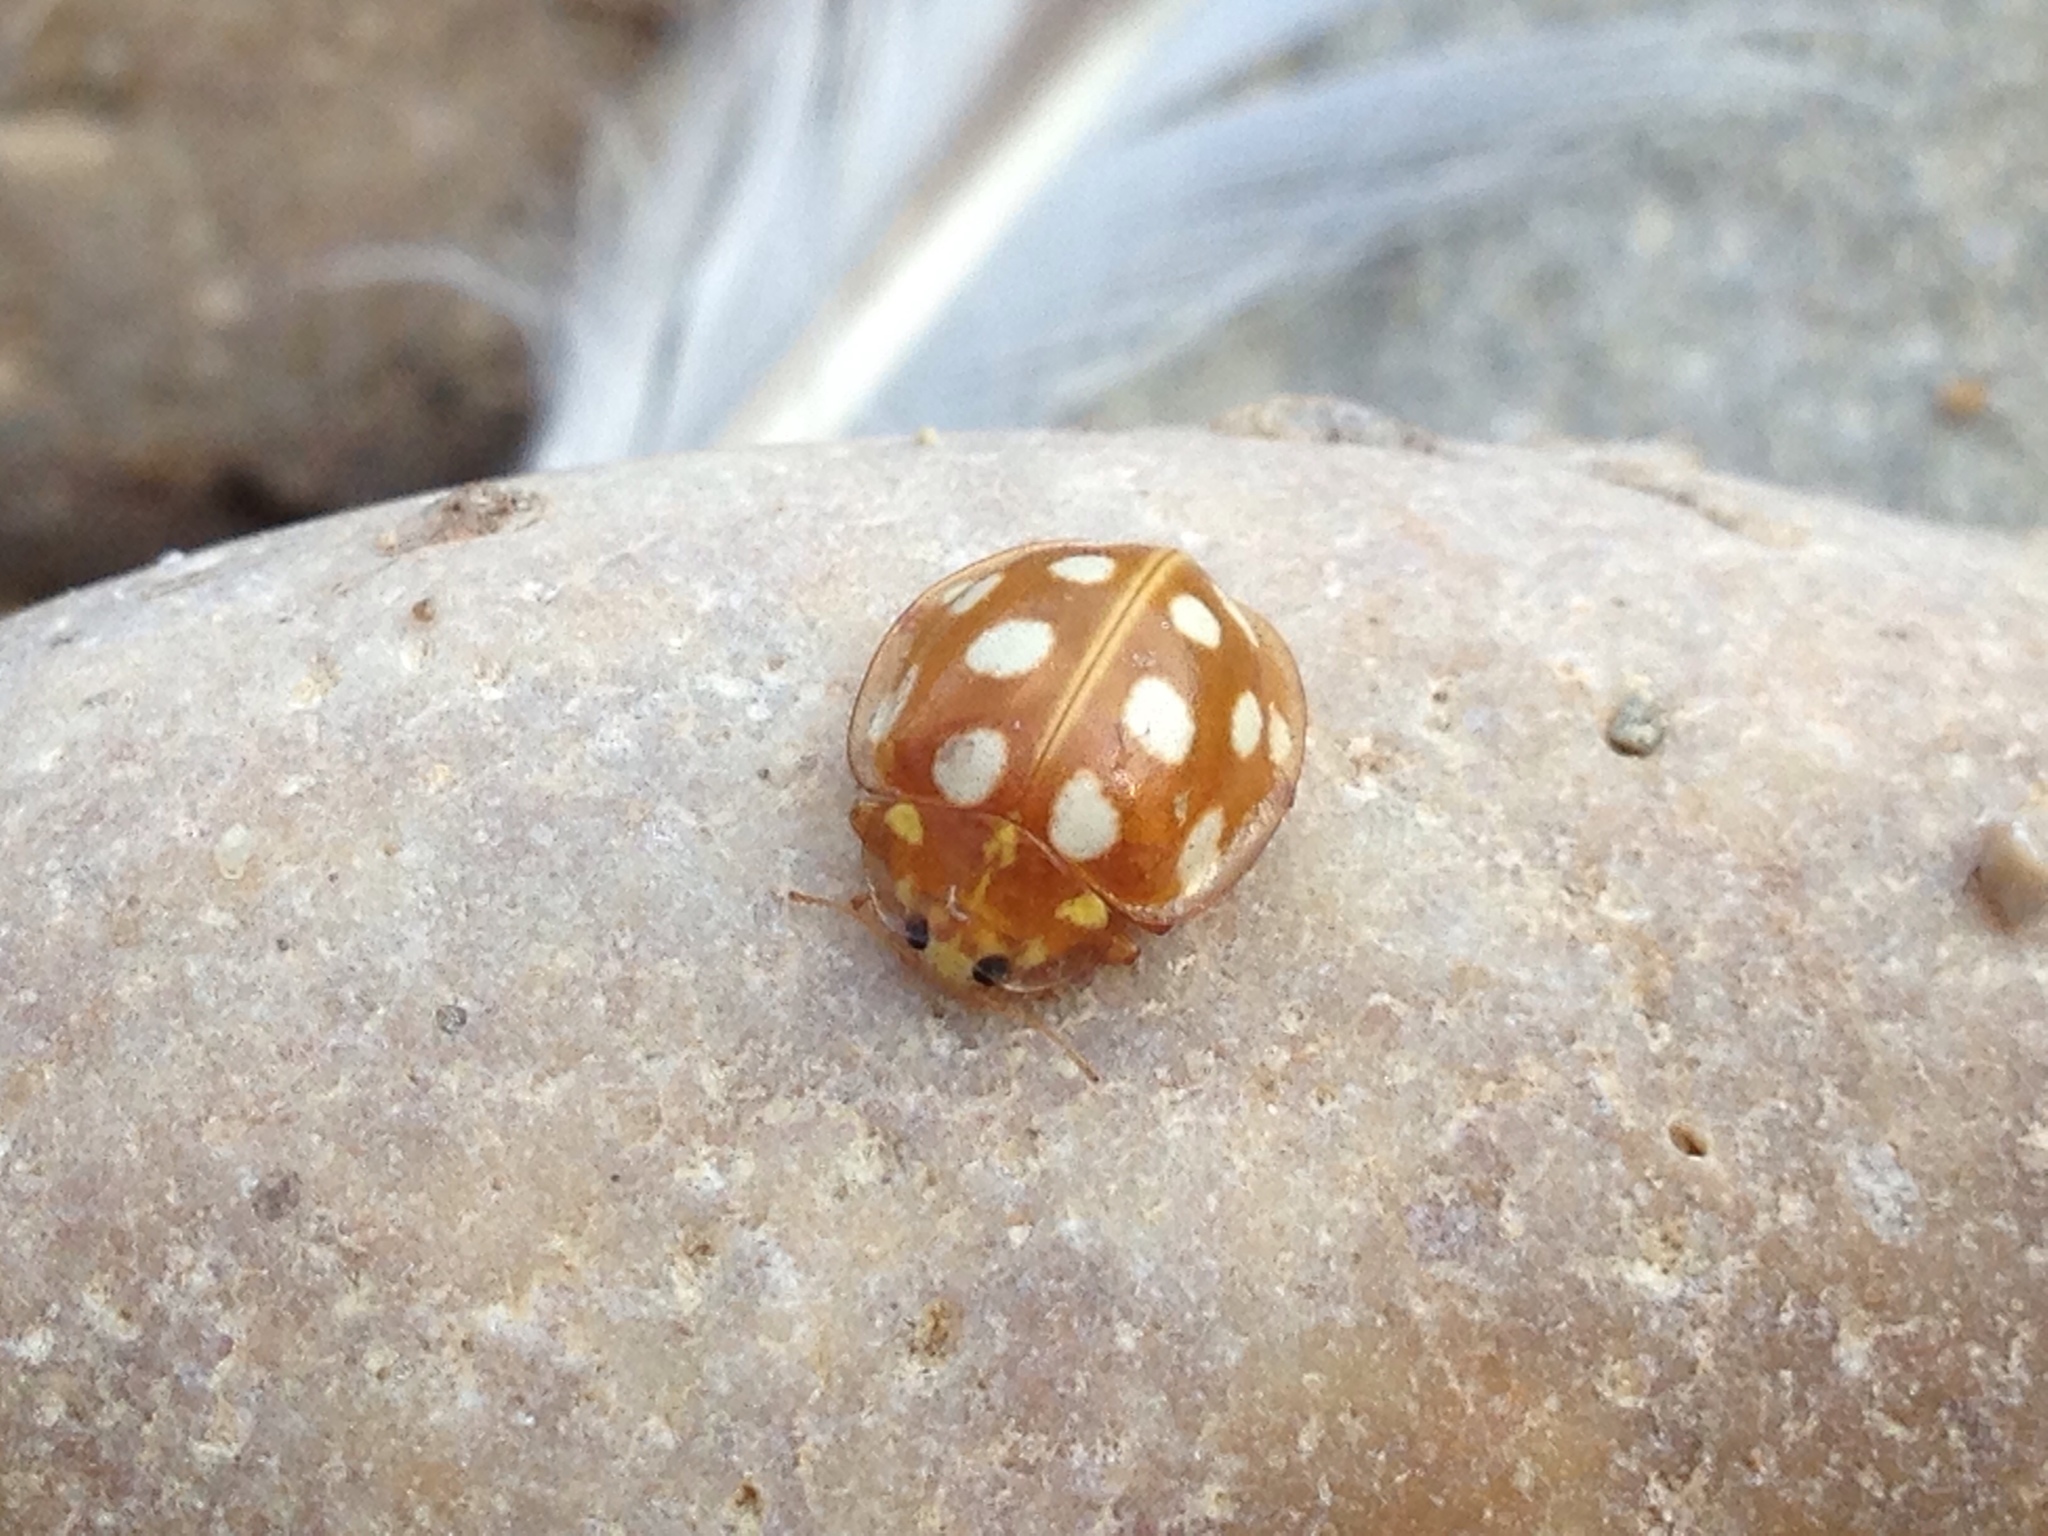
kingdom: Animalia
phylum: Arthropoda
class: Insecta
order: Coleoptera
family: Coccinellidae
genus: Halyzia
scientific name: Halyzia sedecimguttata
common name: Orange ladybird
